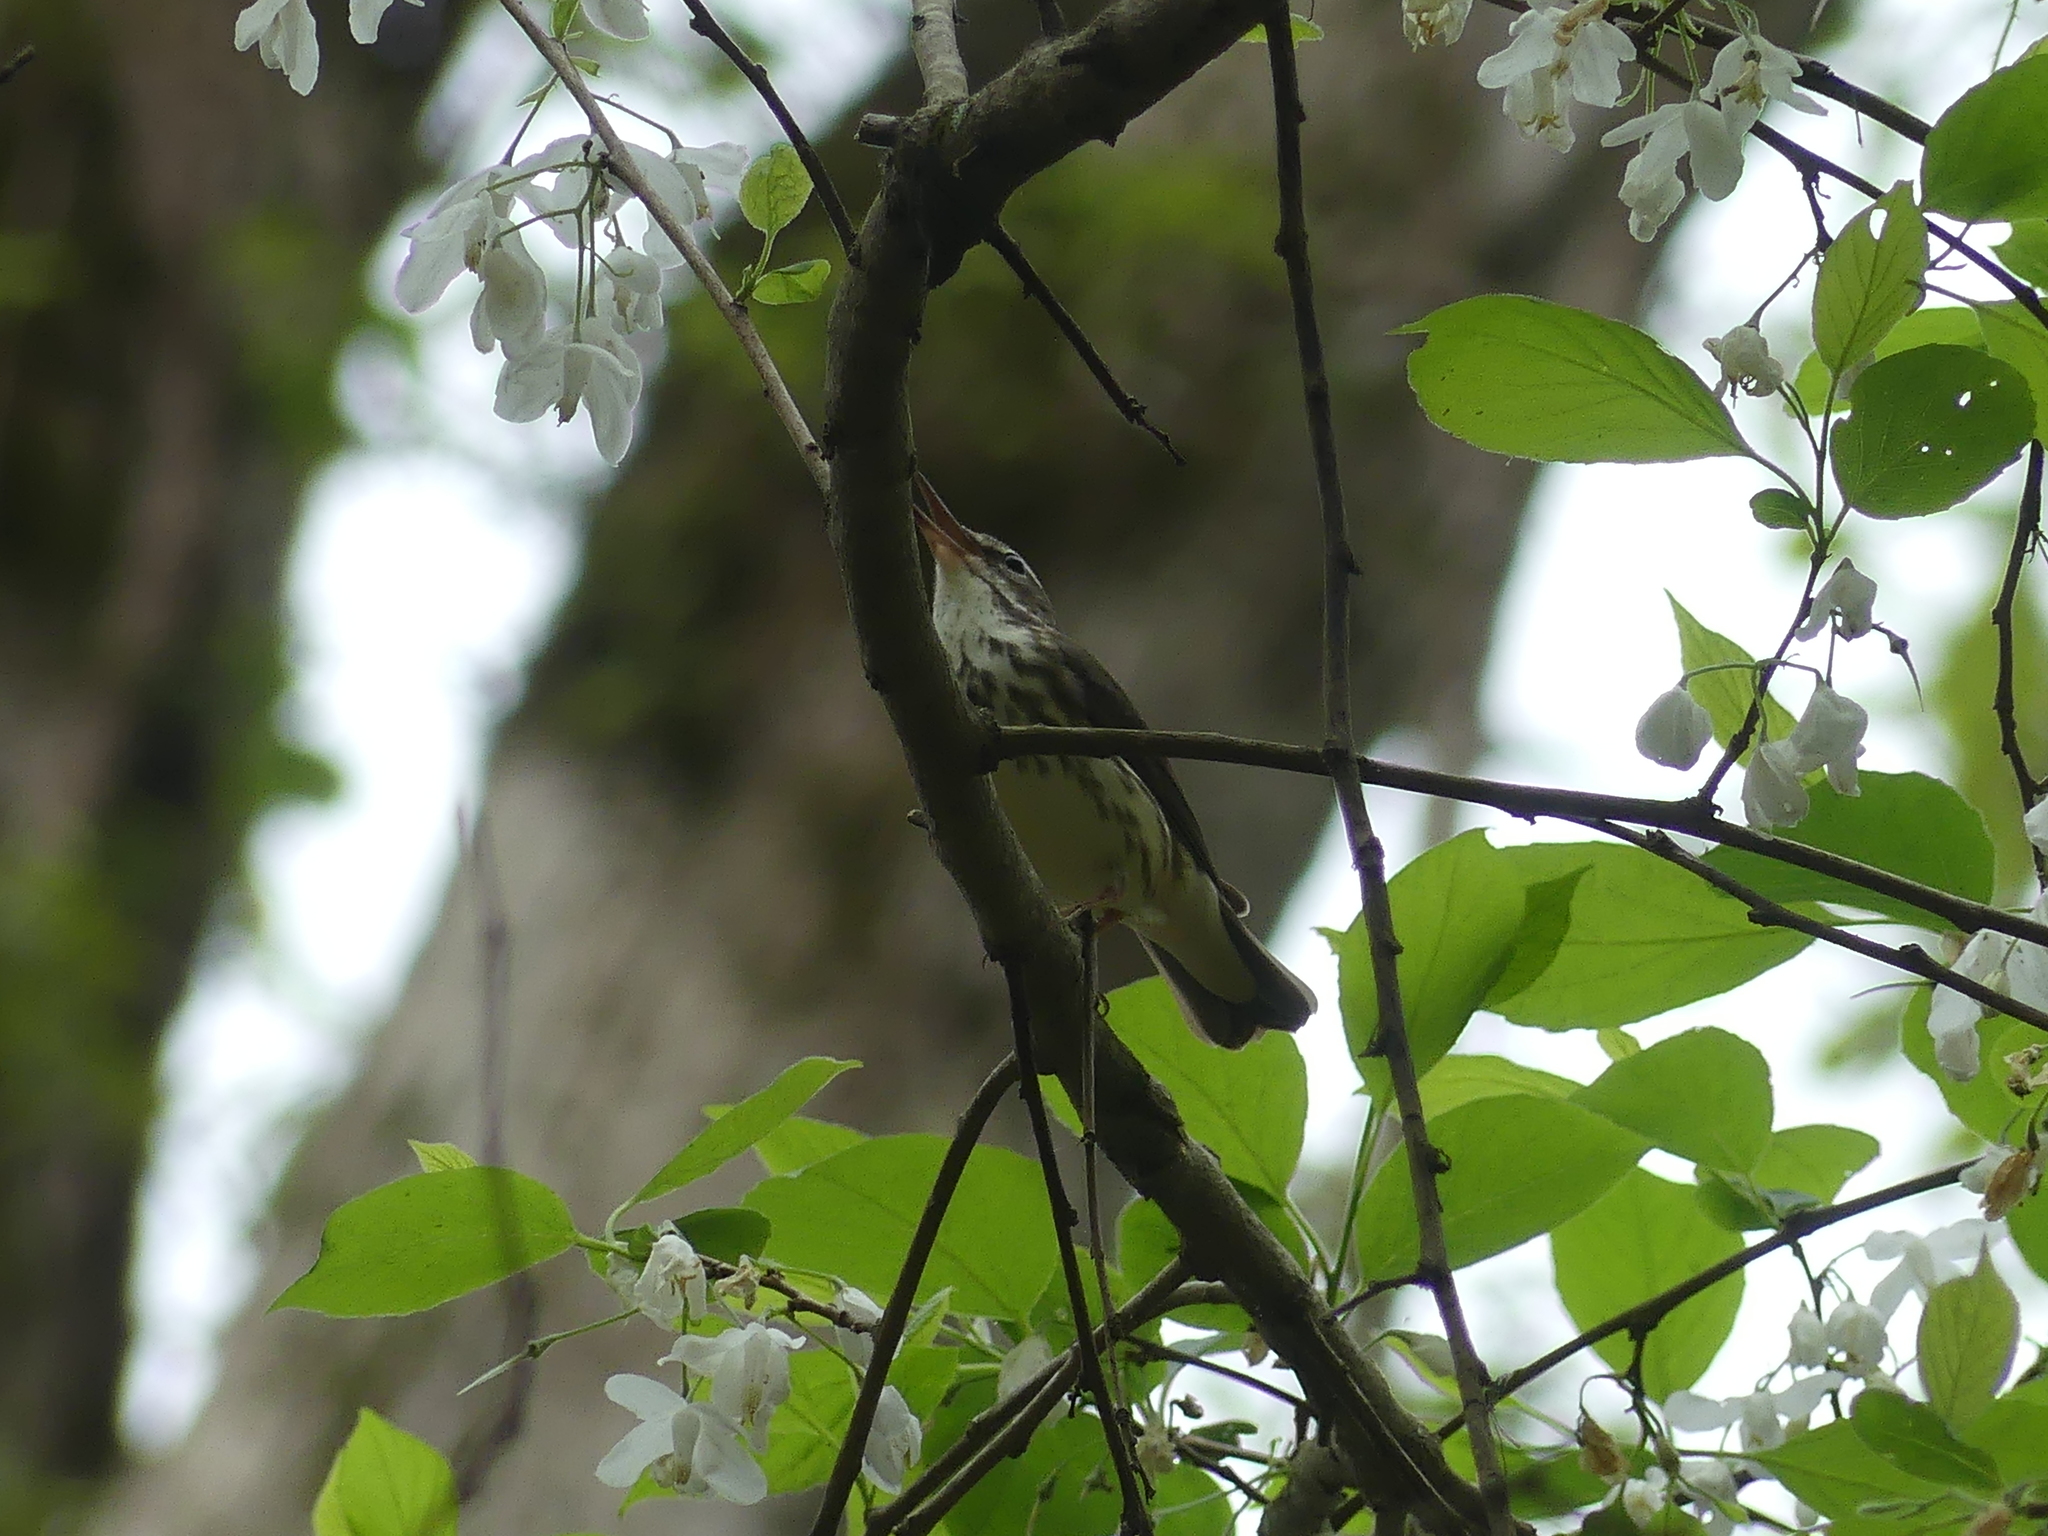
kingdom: Animalia
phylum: Chordata
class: Aves
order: Passeriformes
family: Parulidae
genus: Parkesia
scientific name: Parkesia motacilla
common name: Louisiana waterthrush
